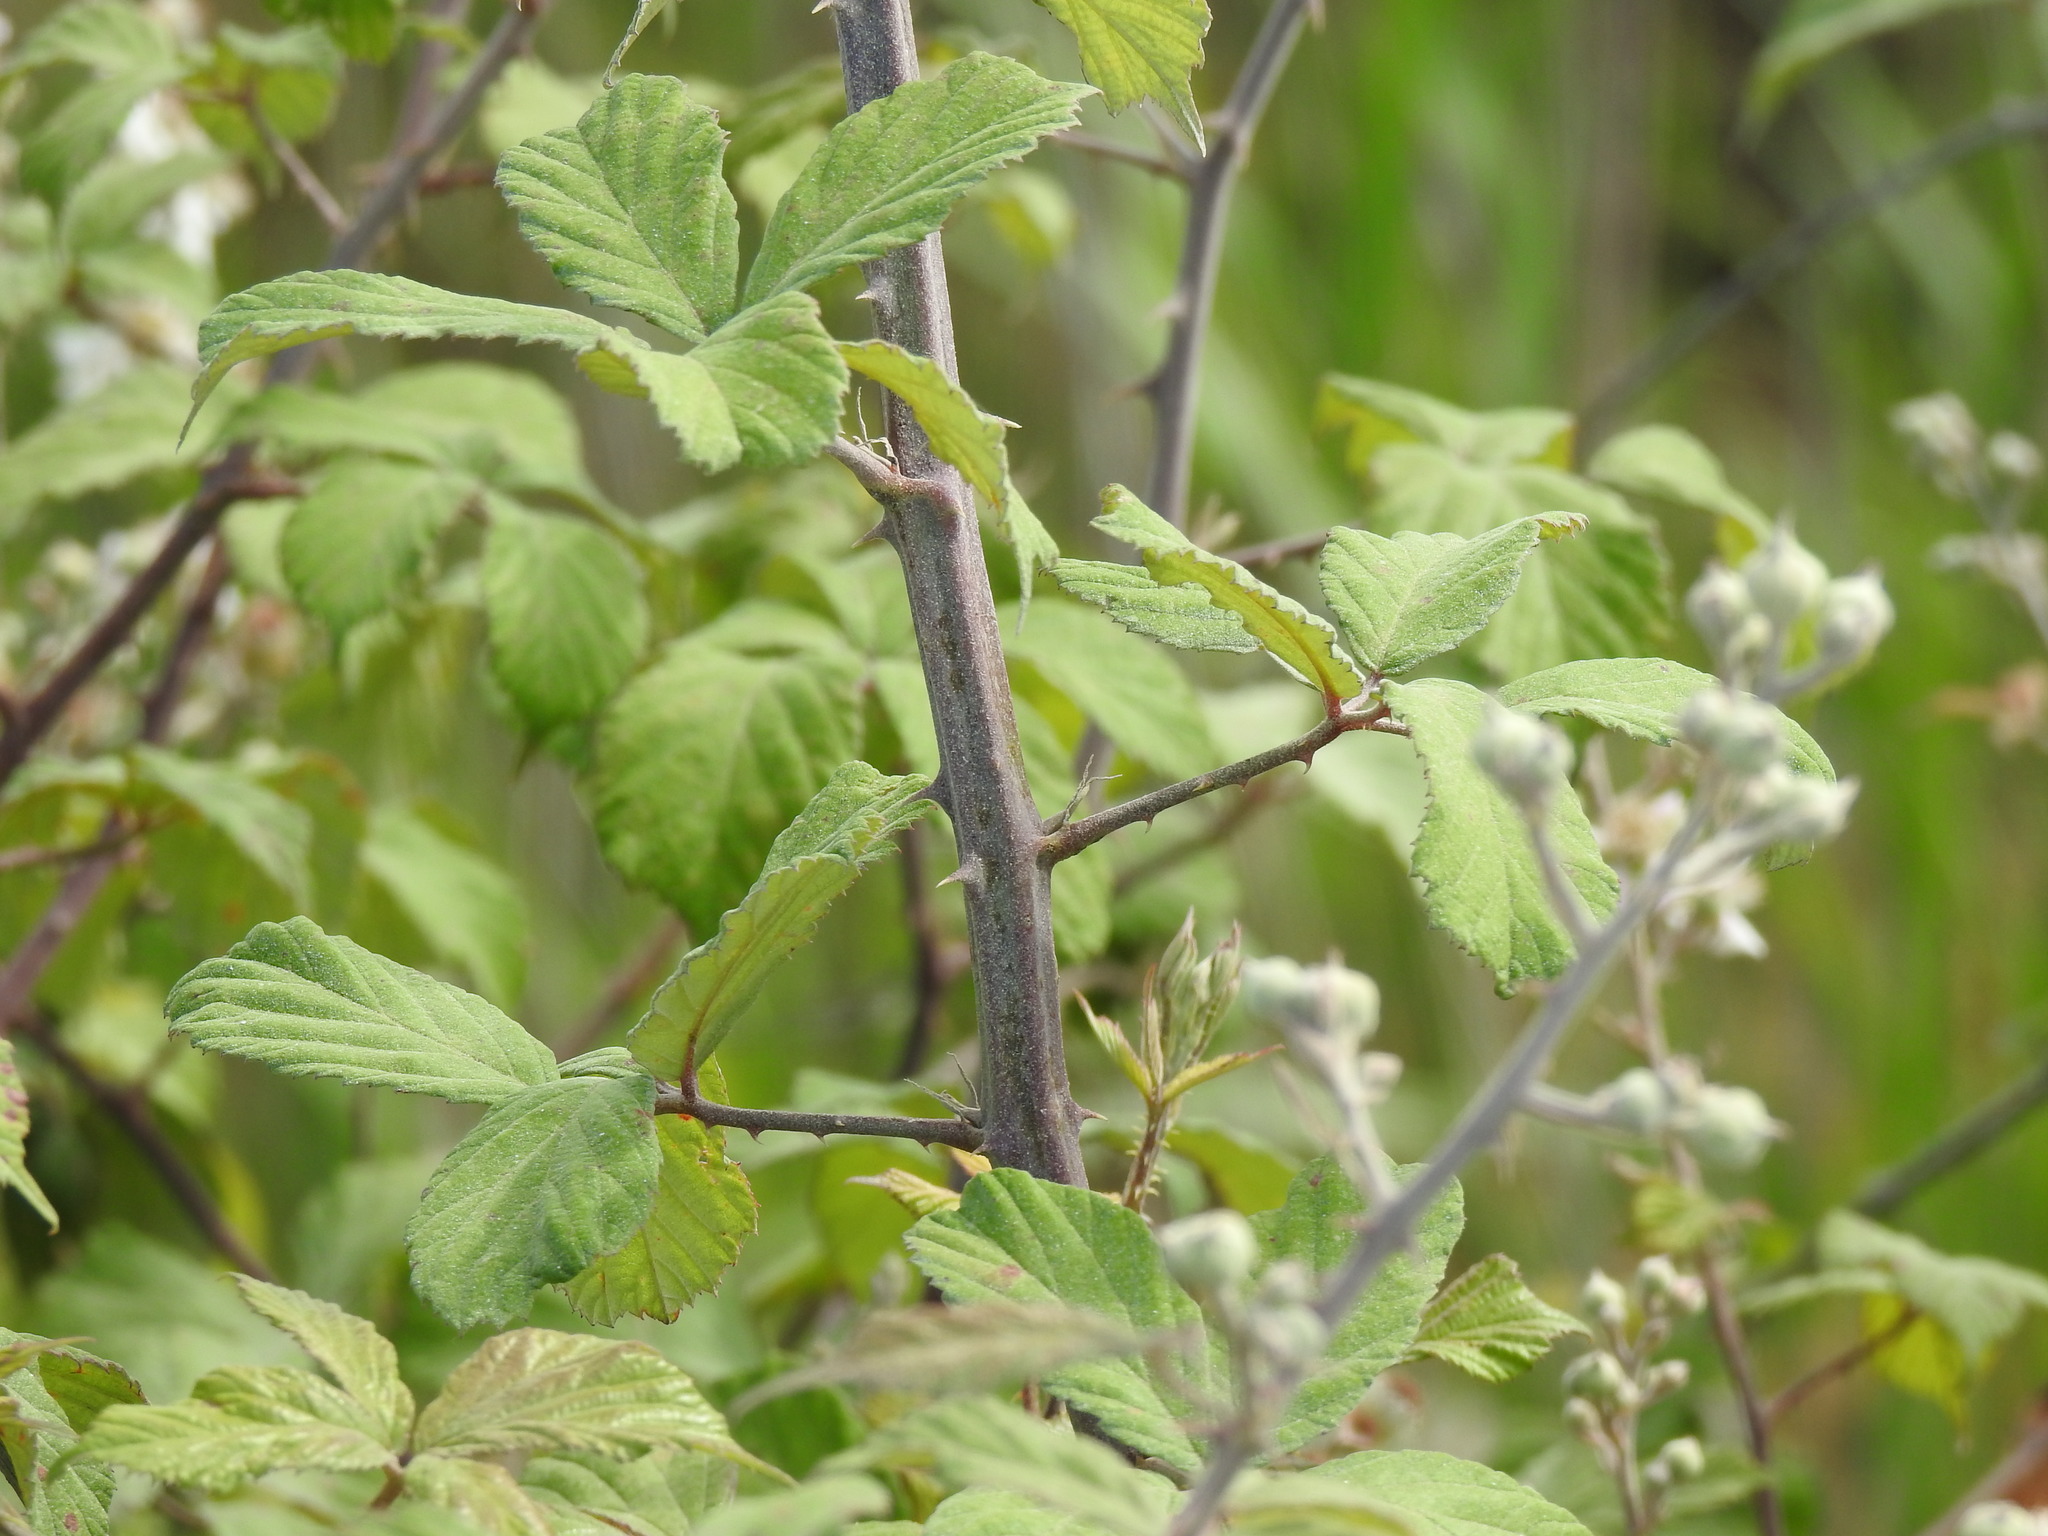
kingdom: Plantae
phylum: Tracheophyta
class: Magnoliopsida
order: Rosales
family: Rosaceae
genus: Rubus
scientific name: Rubus ulmifolius
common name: Elmleaf blackberry
